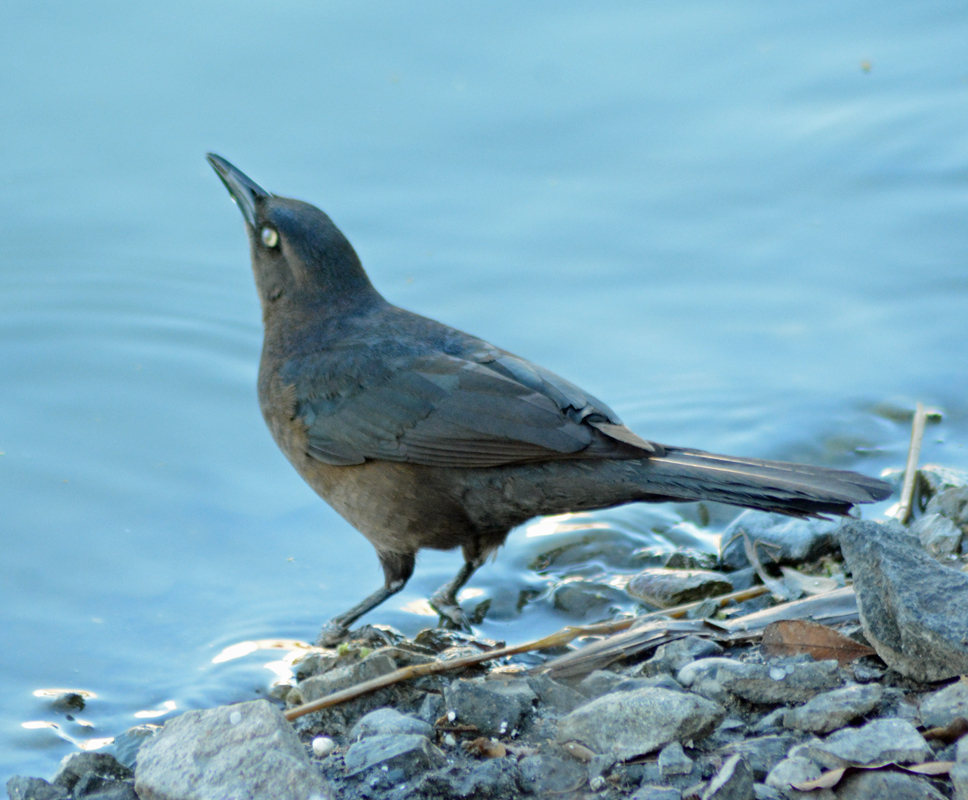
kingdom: Animalia
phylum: Chordata
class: Aves
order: Passeriformes
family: Icteridae
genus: Quiscalus
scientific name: Quiscalus mexicanus
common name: Great-tailed grackle
